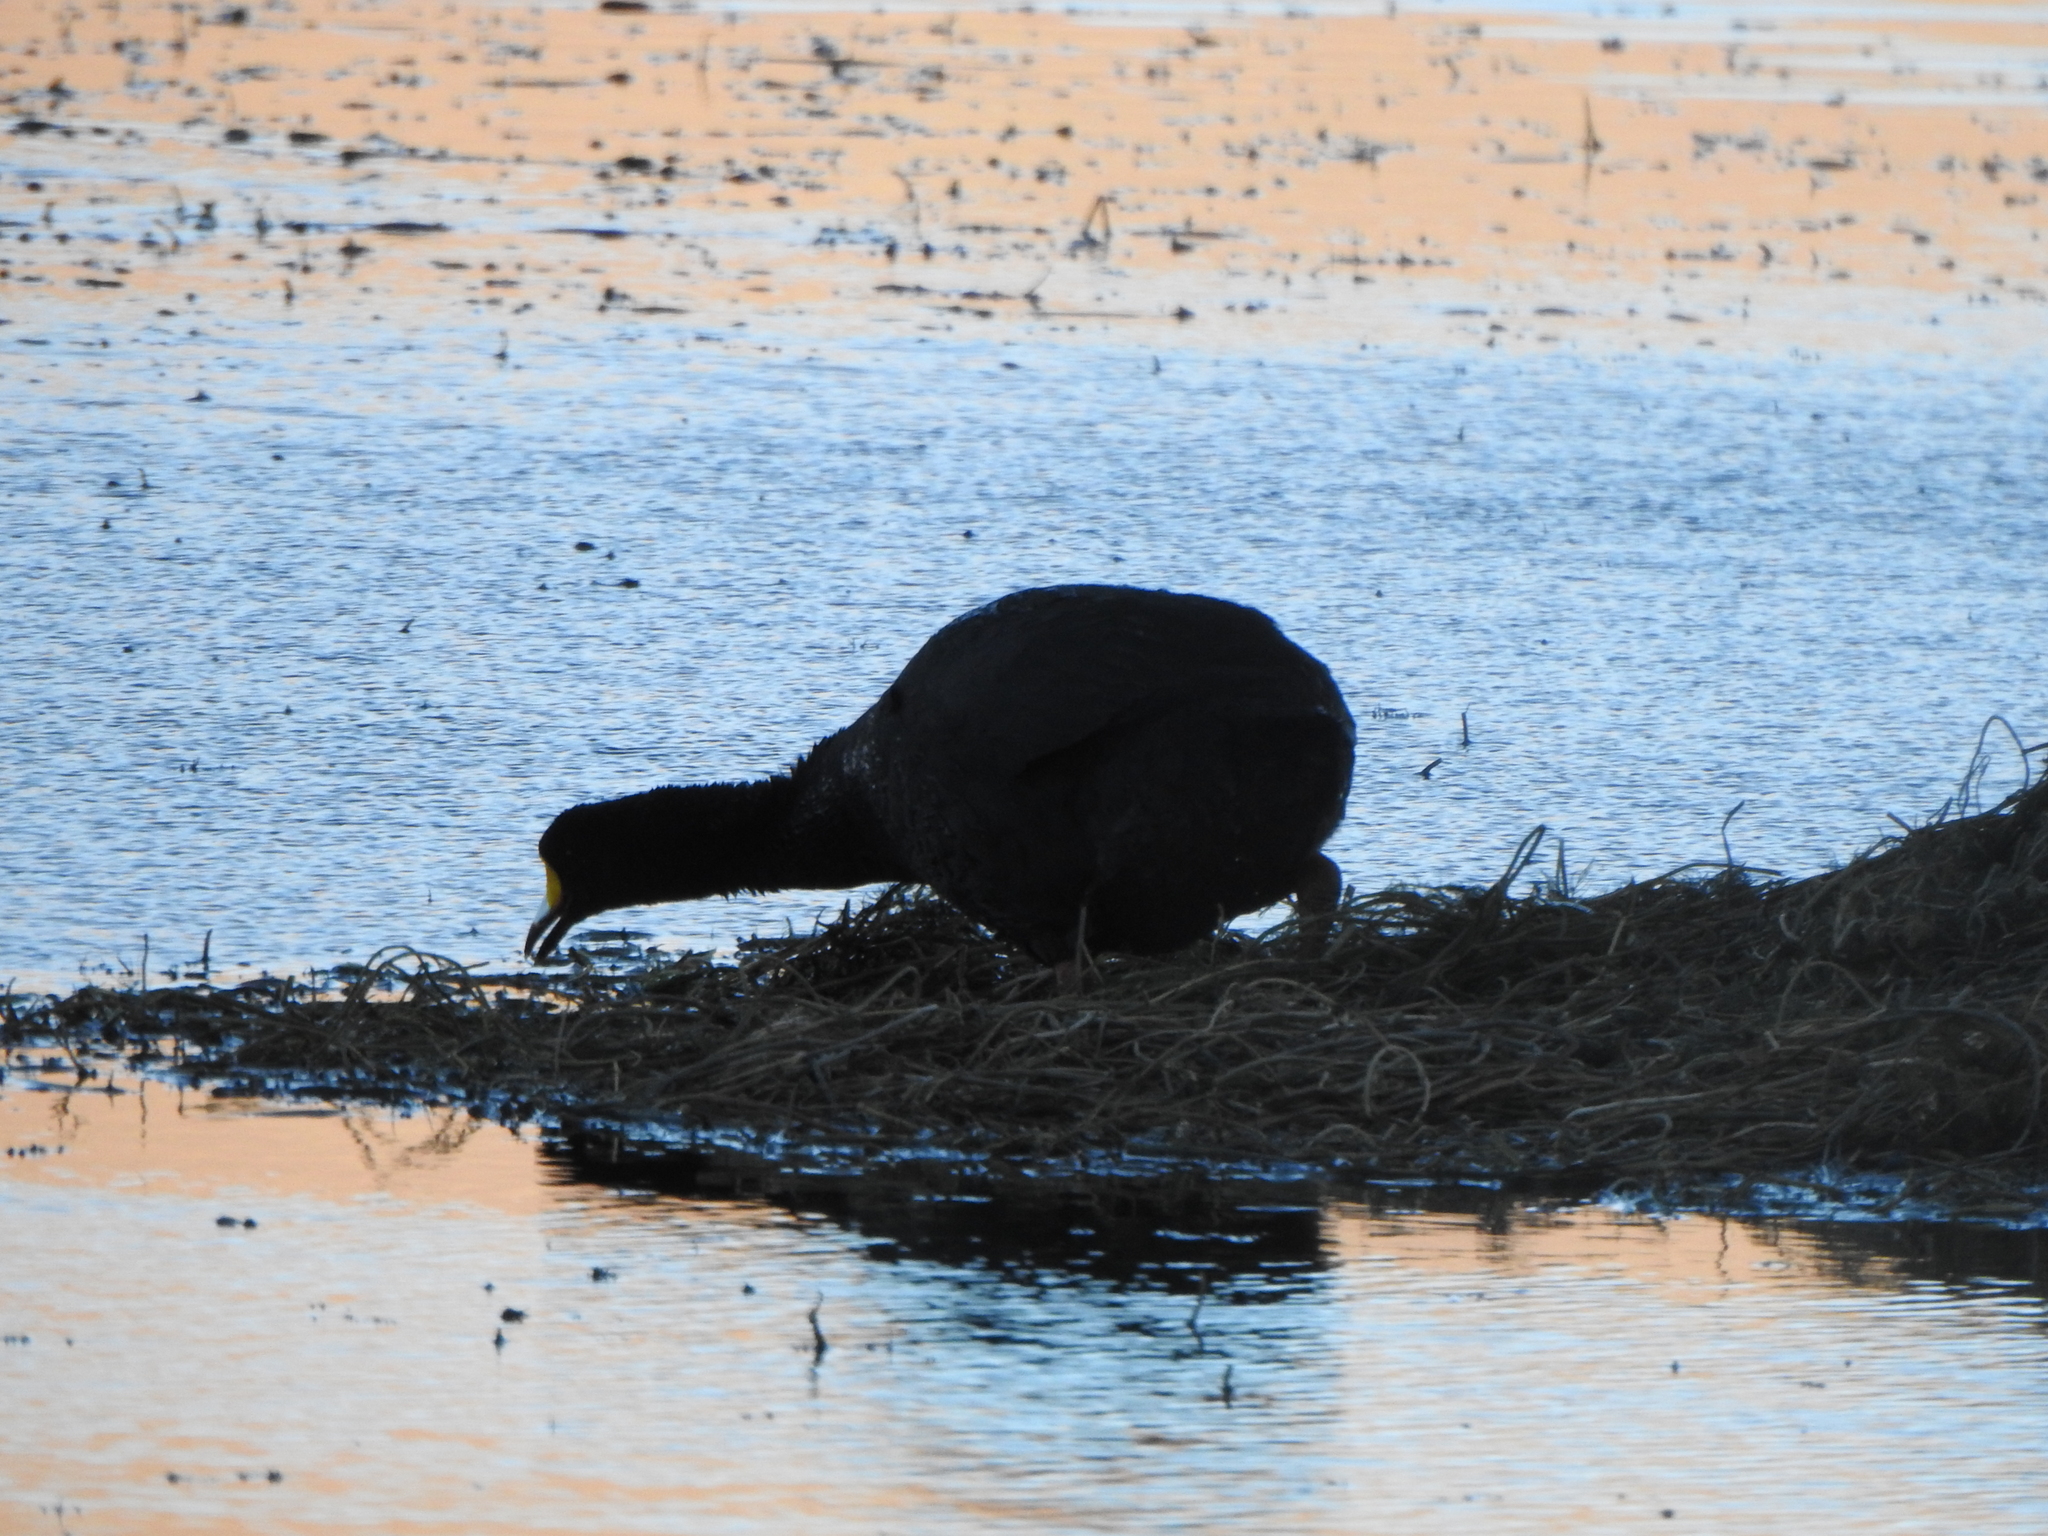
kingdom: Animalia
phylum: Chordata
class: Aves
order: Gruiformes
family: Rallidae
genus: Fulica
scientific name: Fulica gigantea
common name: Giant coot
